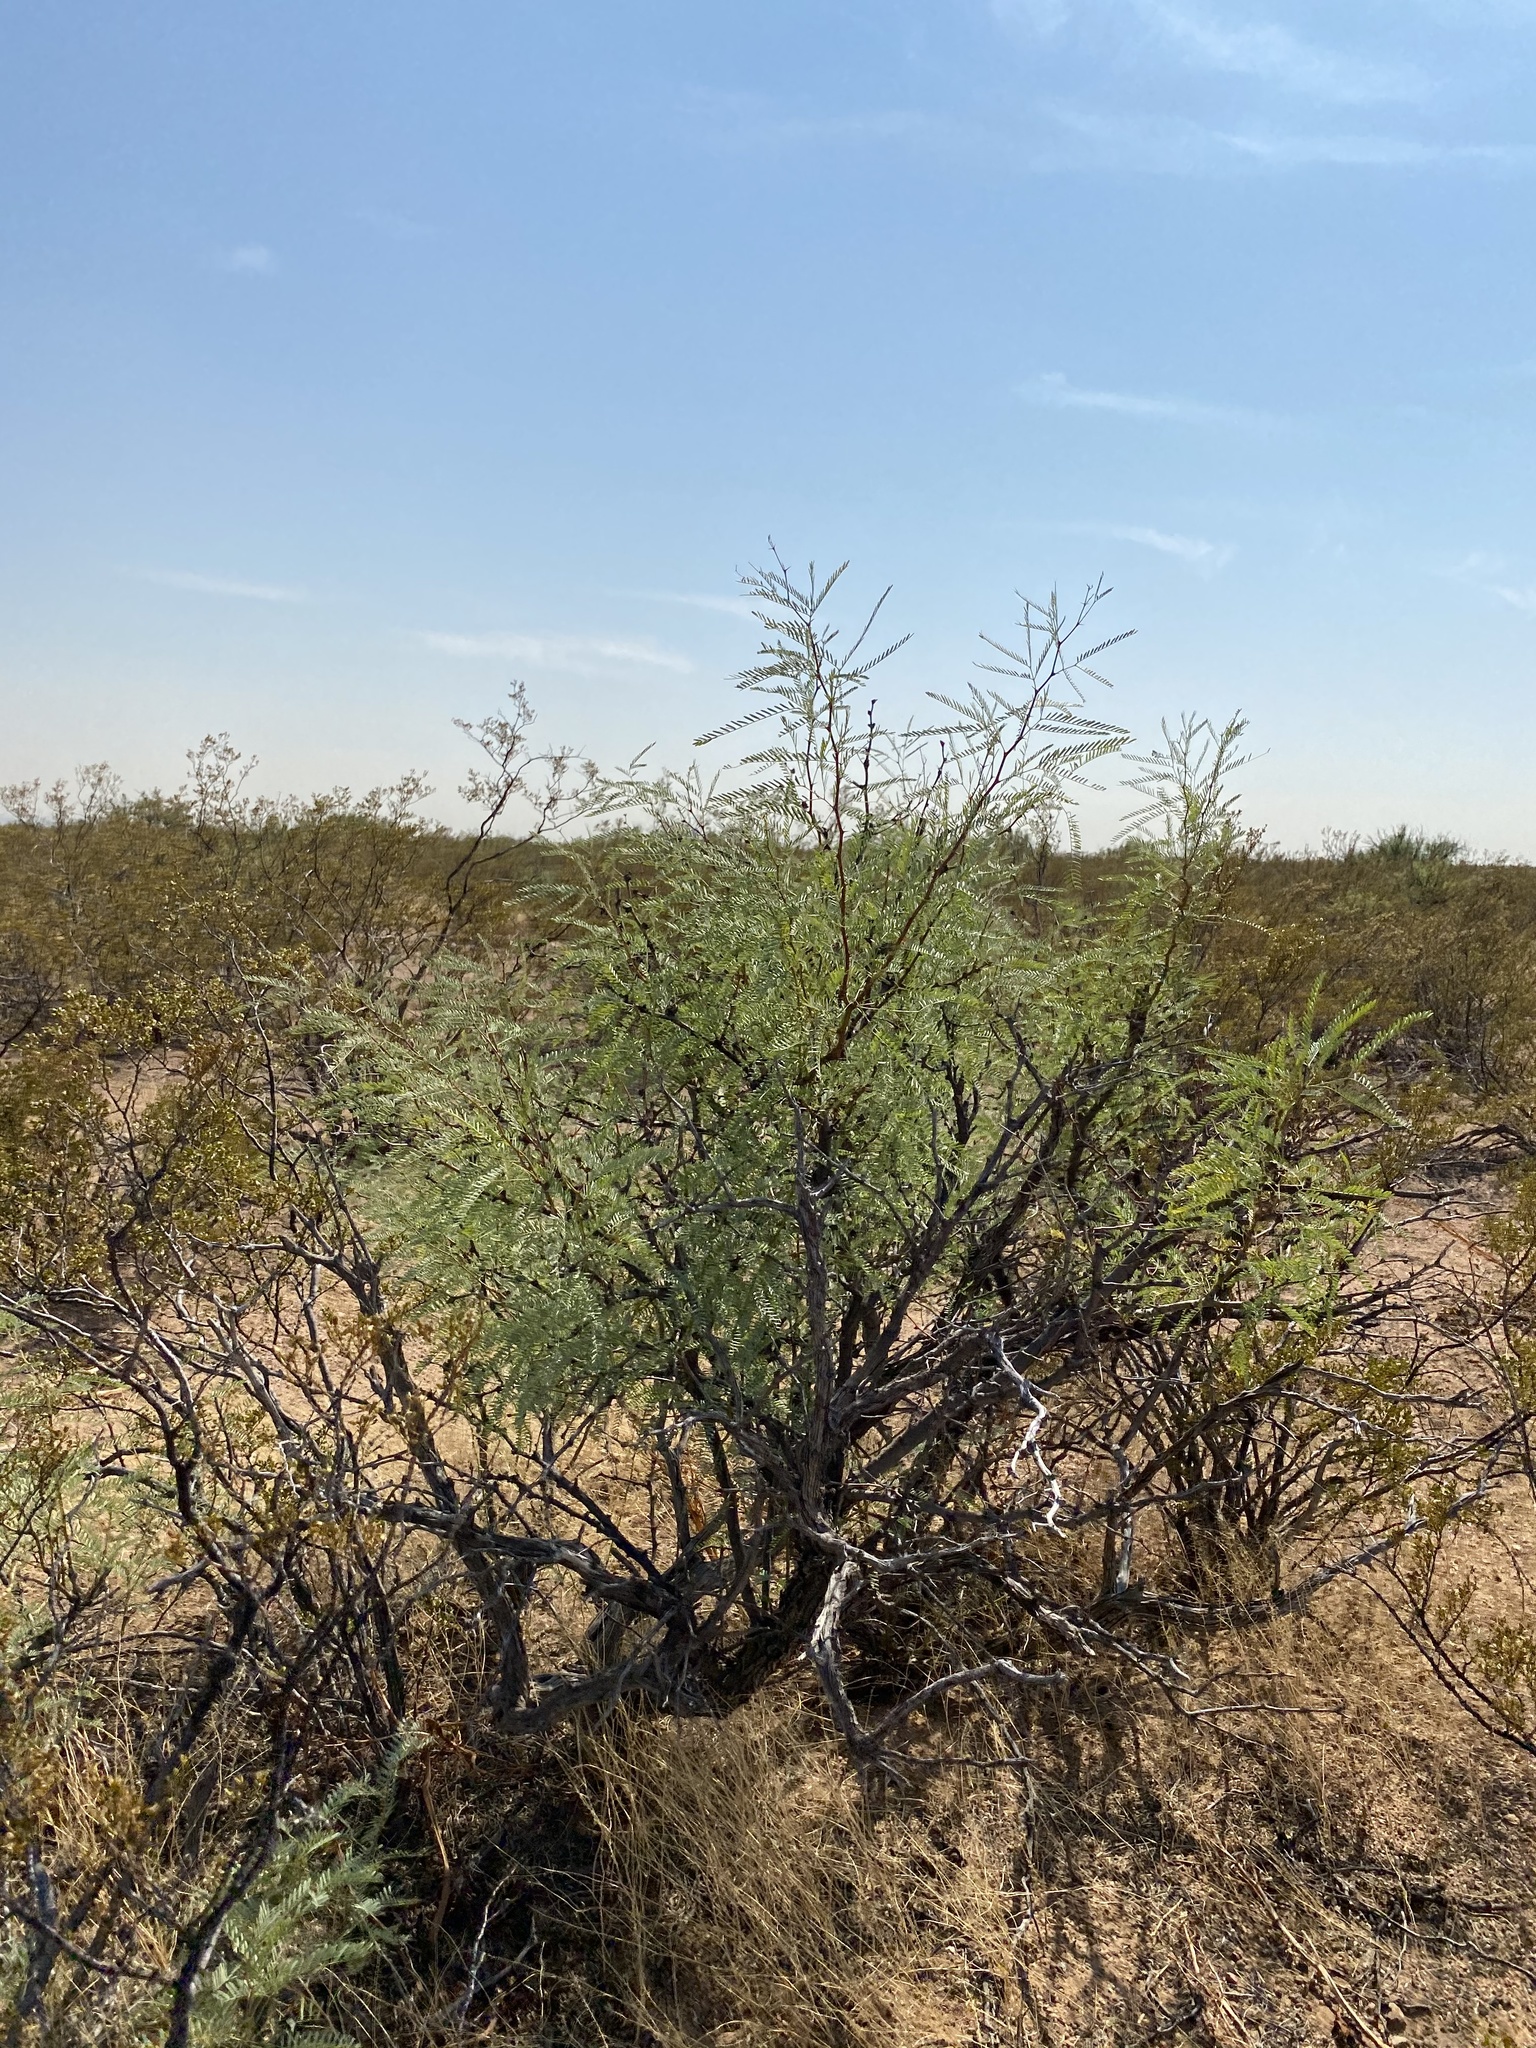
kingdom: Plantae
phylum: Tracheophyta
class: Magnoliopsida
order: Fabales
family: Fabaceae
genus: Prosopis
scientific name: Prosopis glandulosa
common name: Honey mesquite
